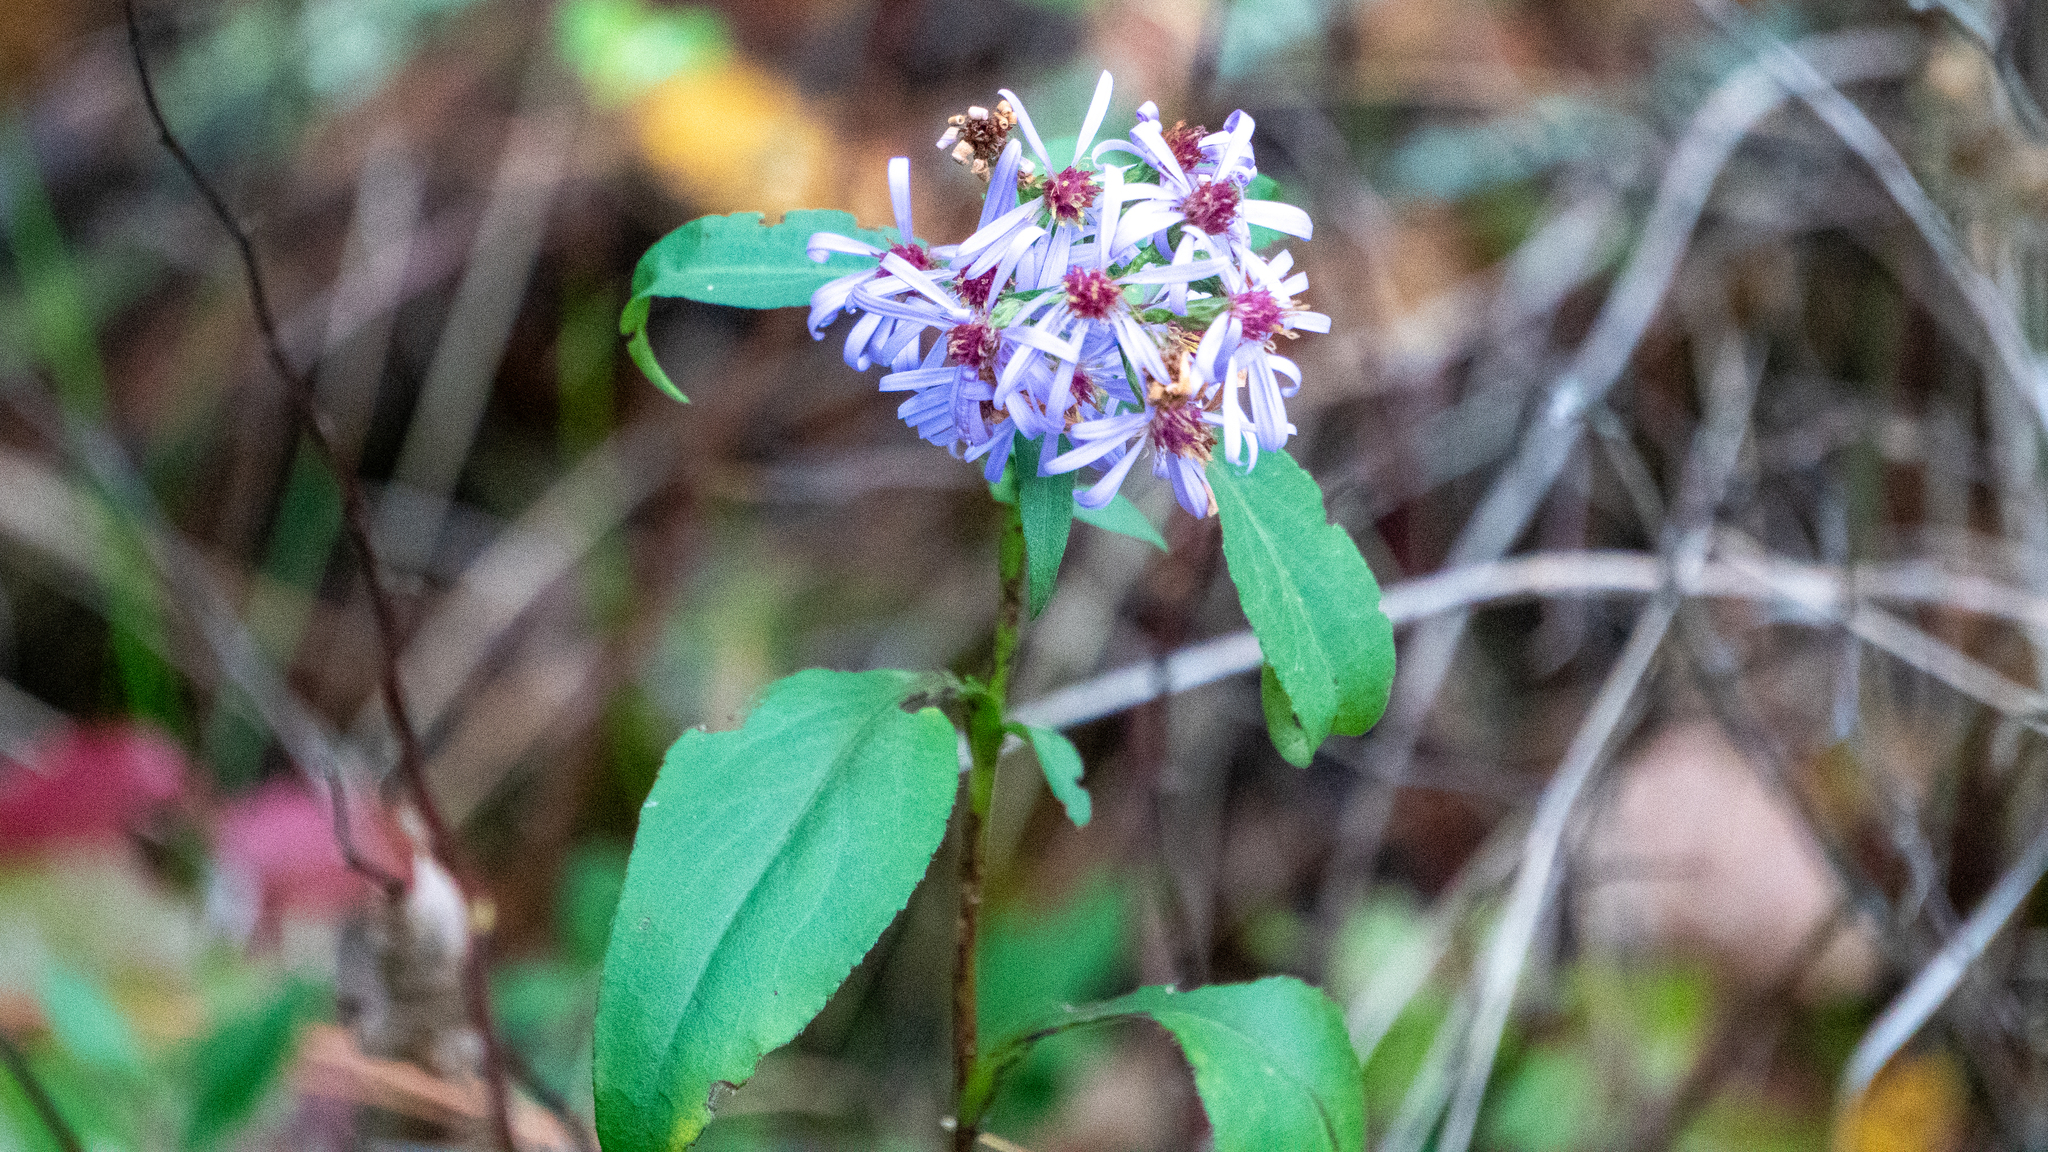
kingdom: Plantae
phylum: Tracheophyta
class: Magnoliopsida
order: Asterales
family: Asteraceae
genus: Symphyotrichum
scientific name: Symphyotrichum ciliolatum
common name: Fringed blue aster
